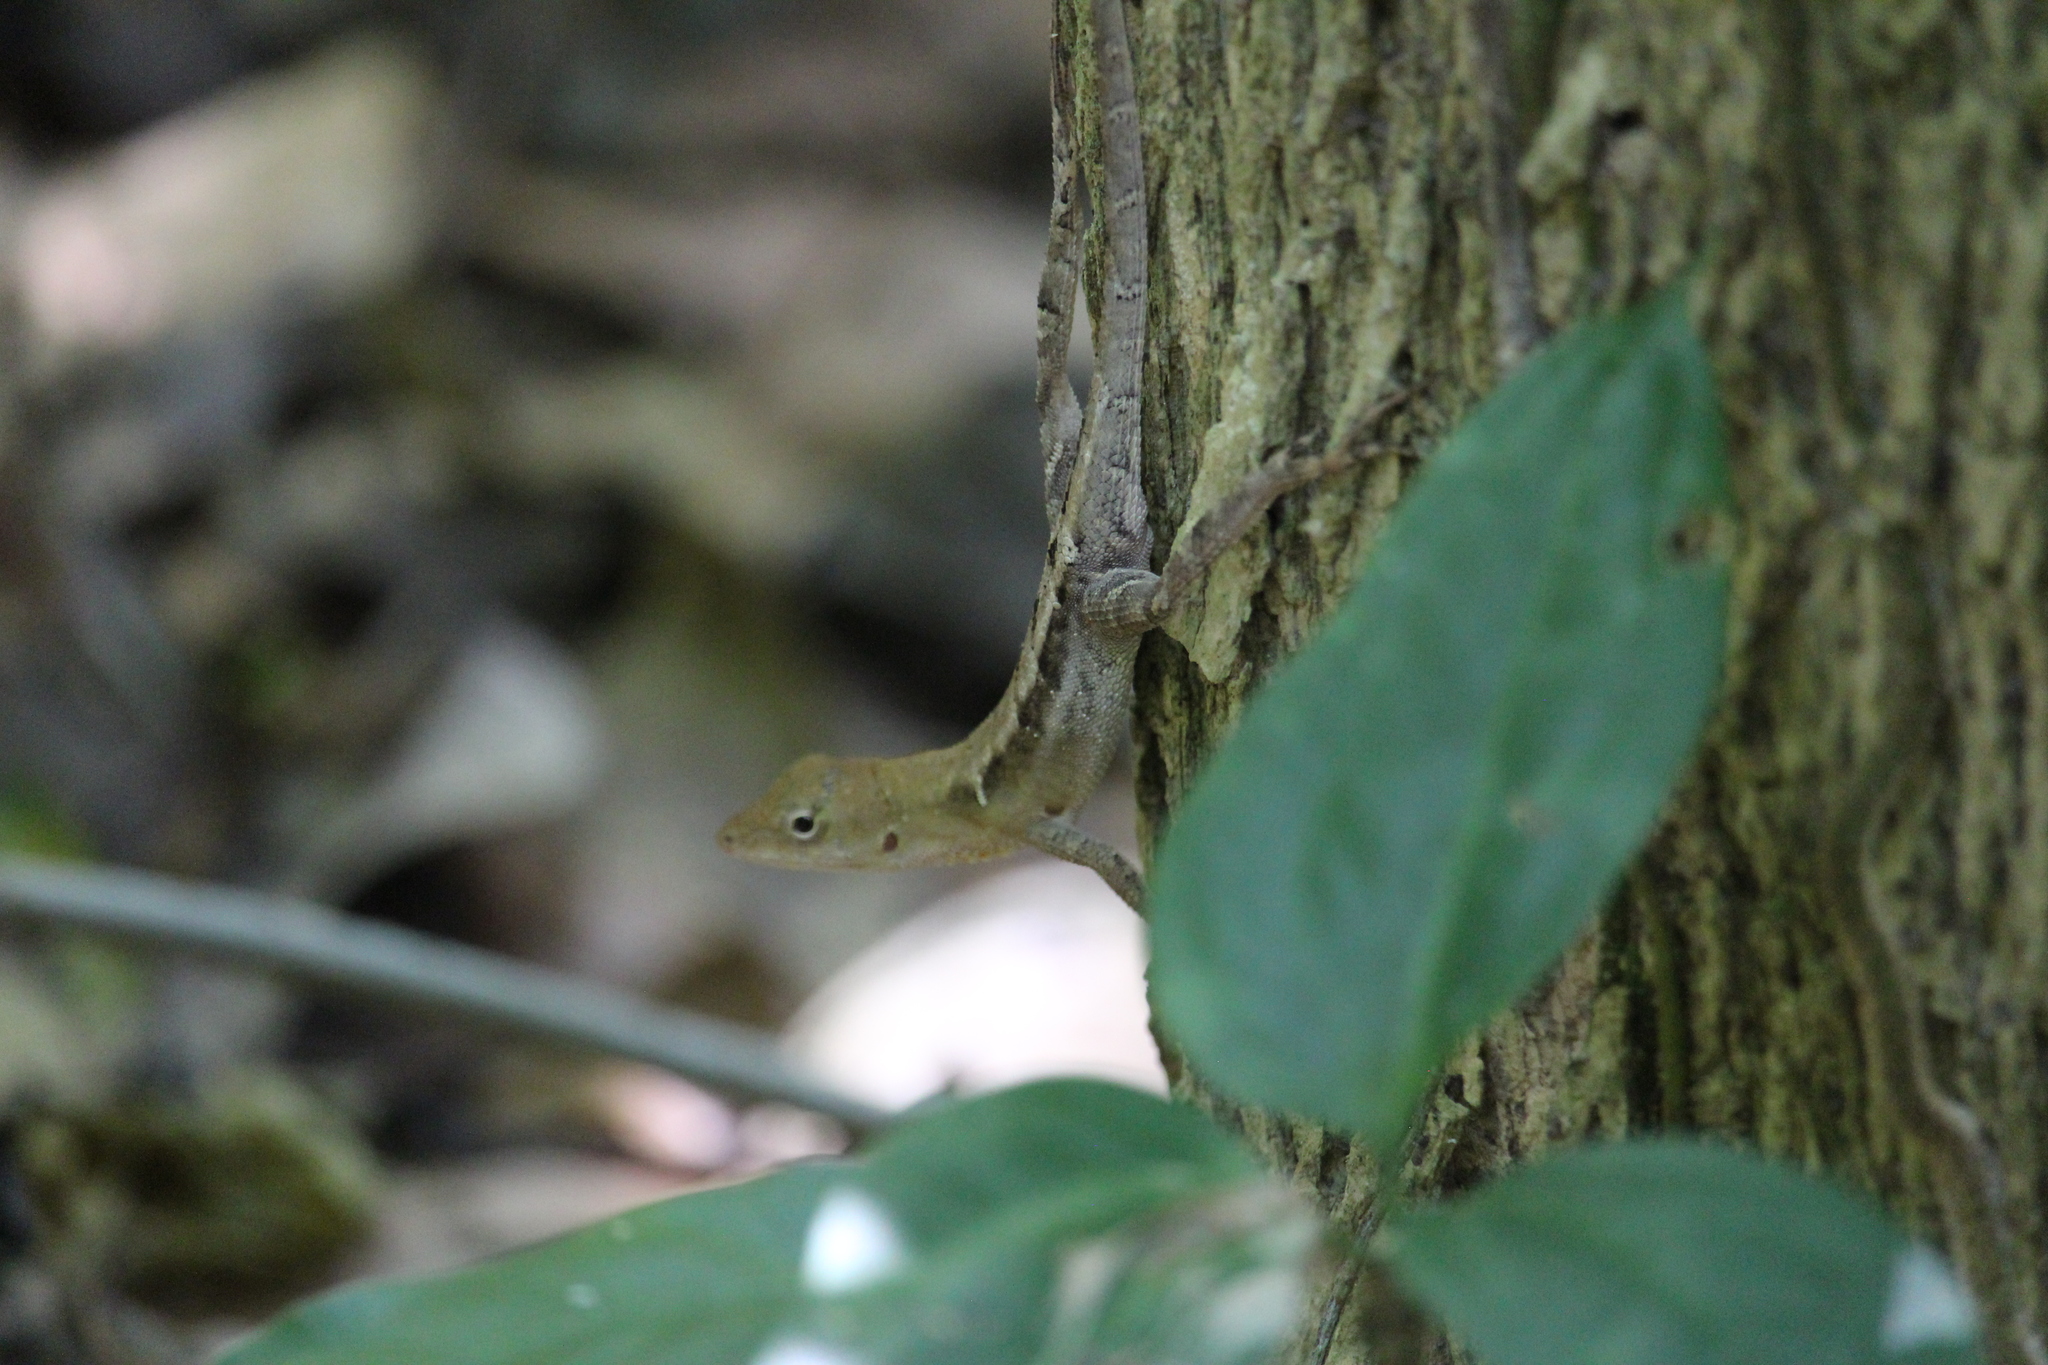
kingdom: Animalia
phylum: Chordata
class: Squamata
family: Dactyloidae
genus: Anolis
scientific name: Anolis tropidonotus
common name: Greater scaly anole
